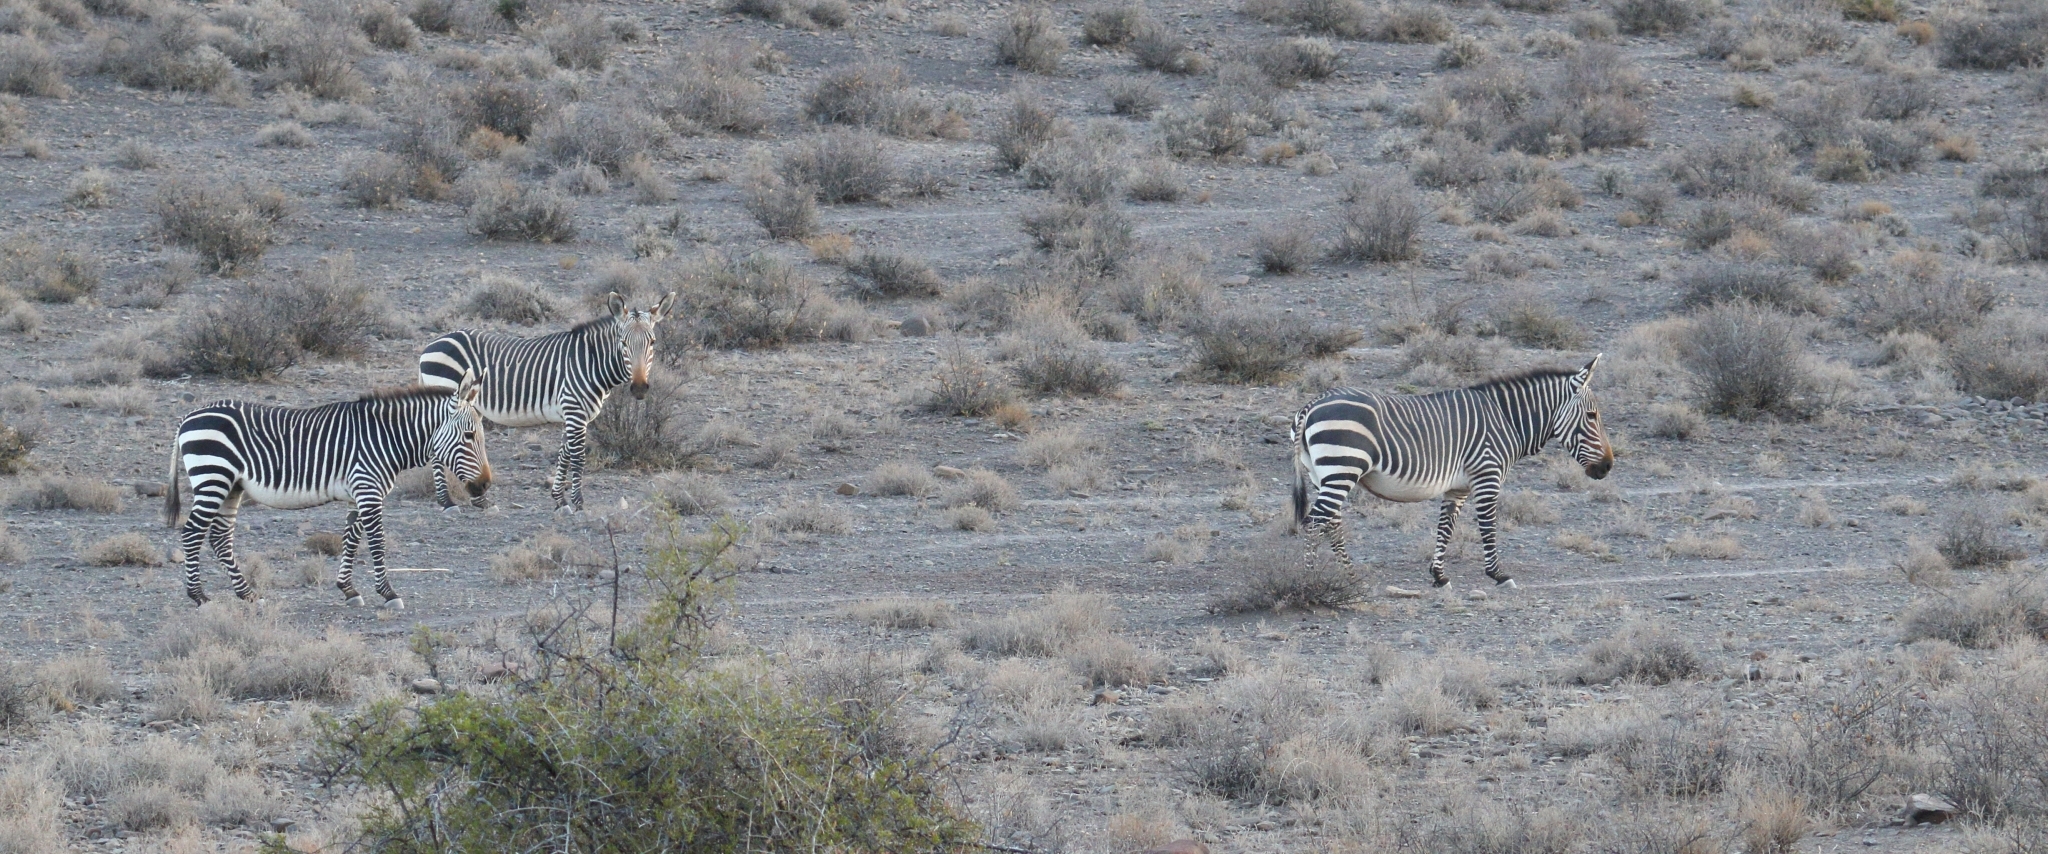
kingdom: Animalia
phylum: Chordata
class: Mammalia
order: Perissodactyla
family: Equidae
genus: Equus
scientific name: Equus zebra
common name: Mountain zebra
